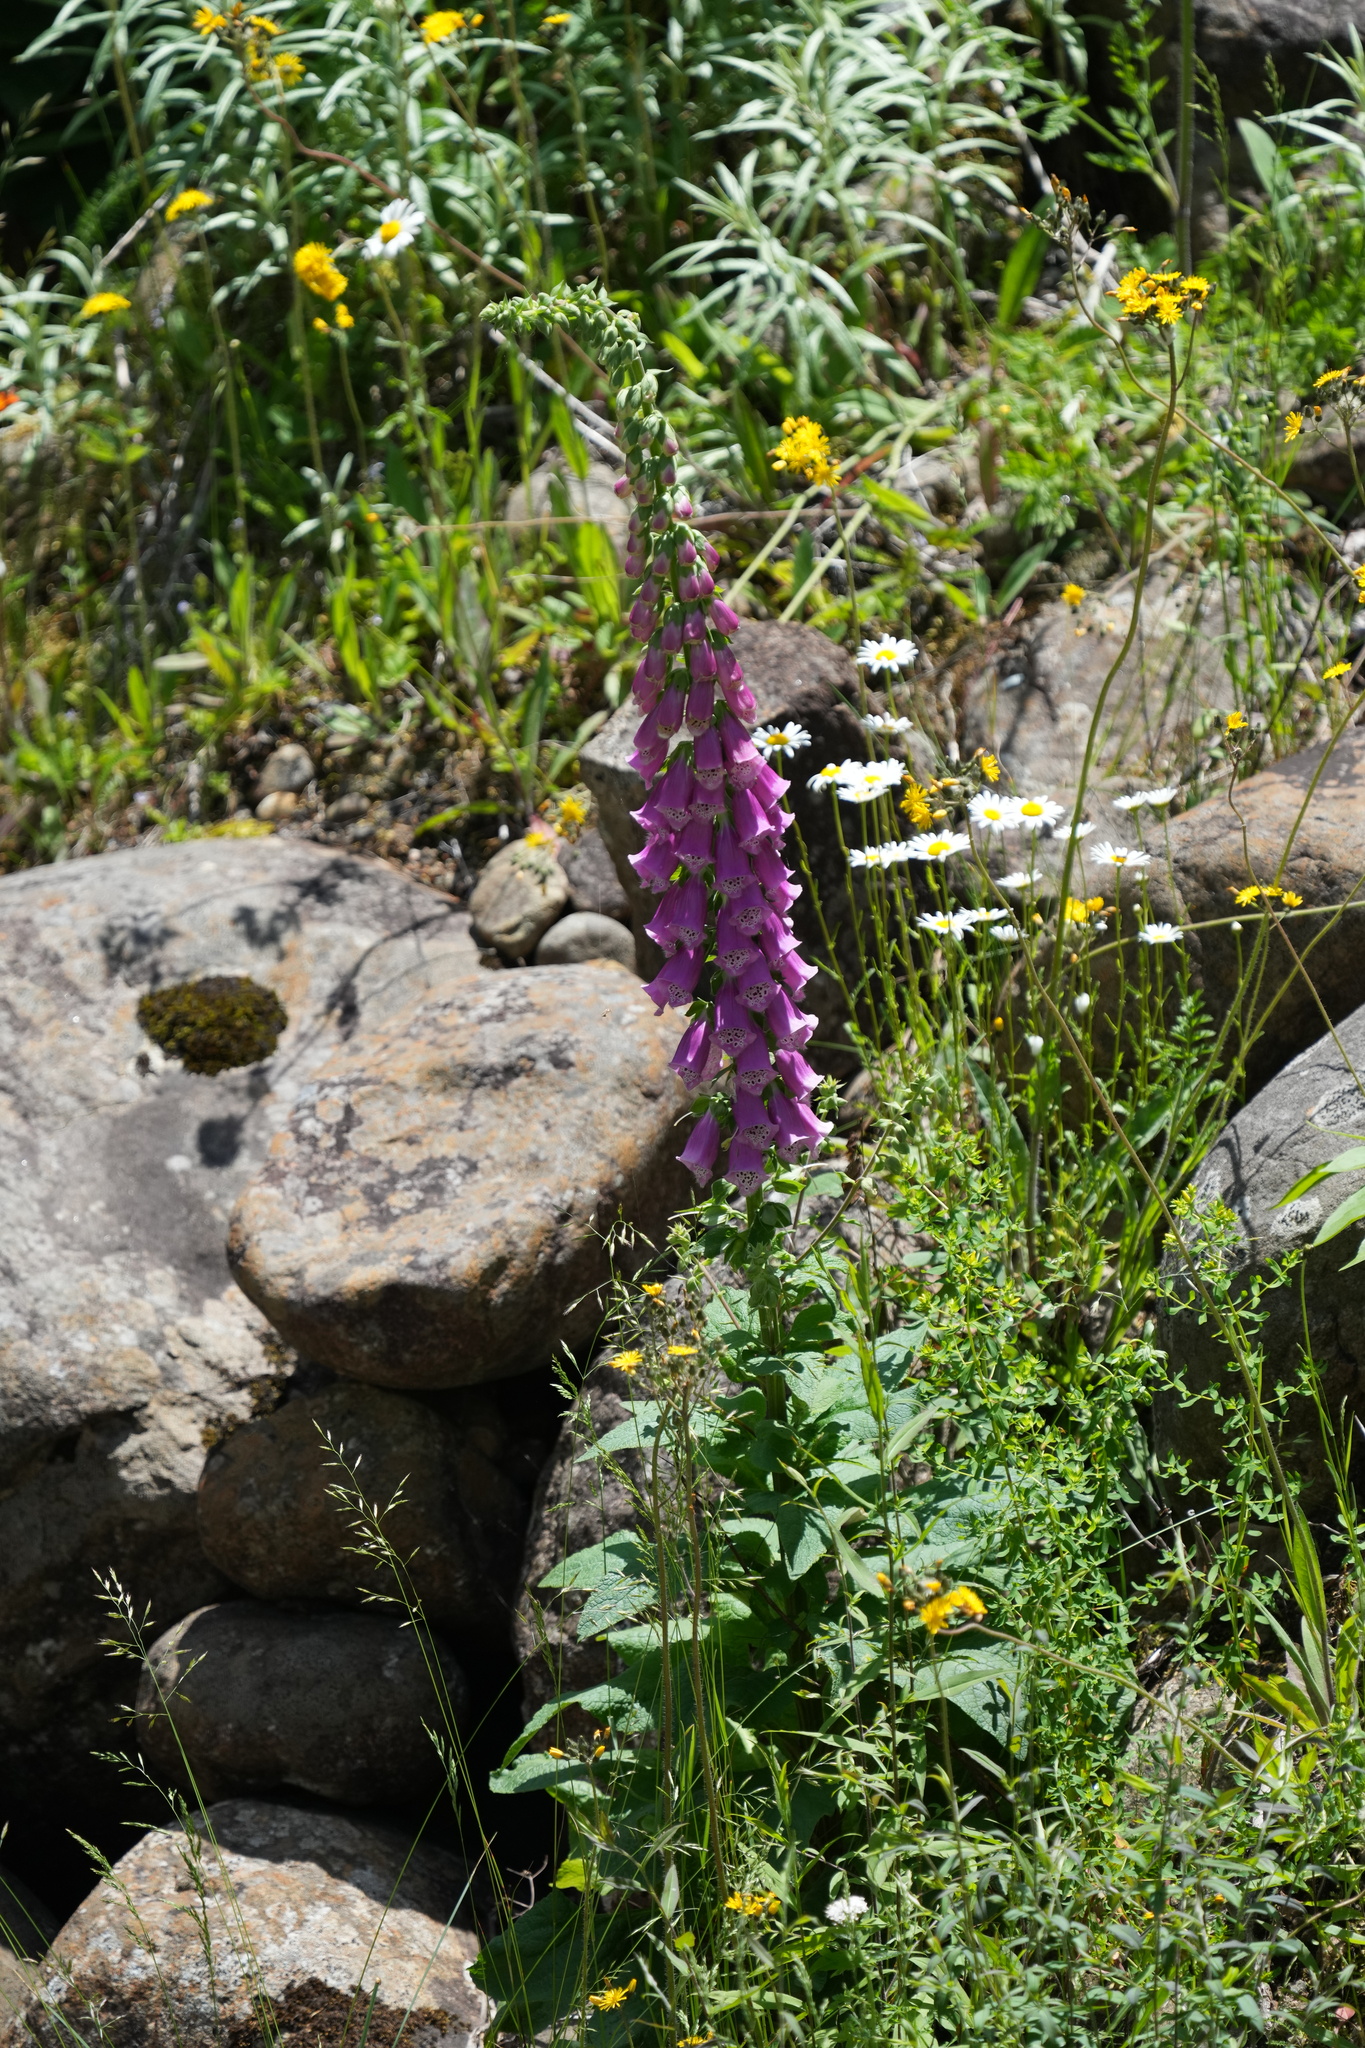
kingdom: Plantae
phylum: Tracheophyta
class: Magnoliopsida
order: Lamiales
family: Plantaginaceae
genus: Digitalis
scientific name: Digitalis purpurea
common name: Foxglove
